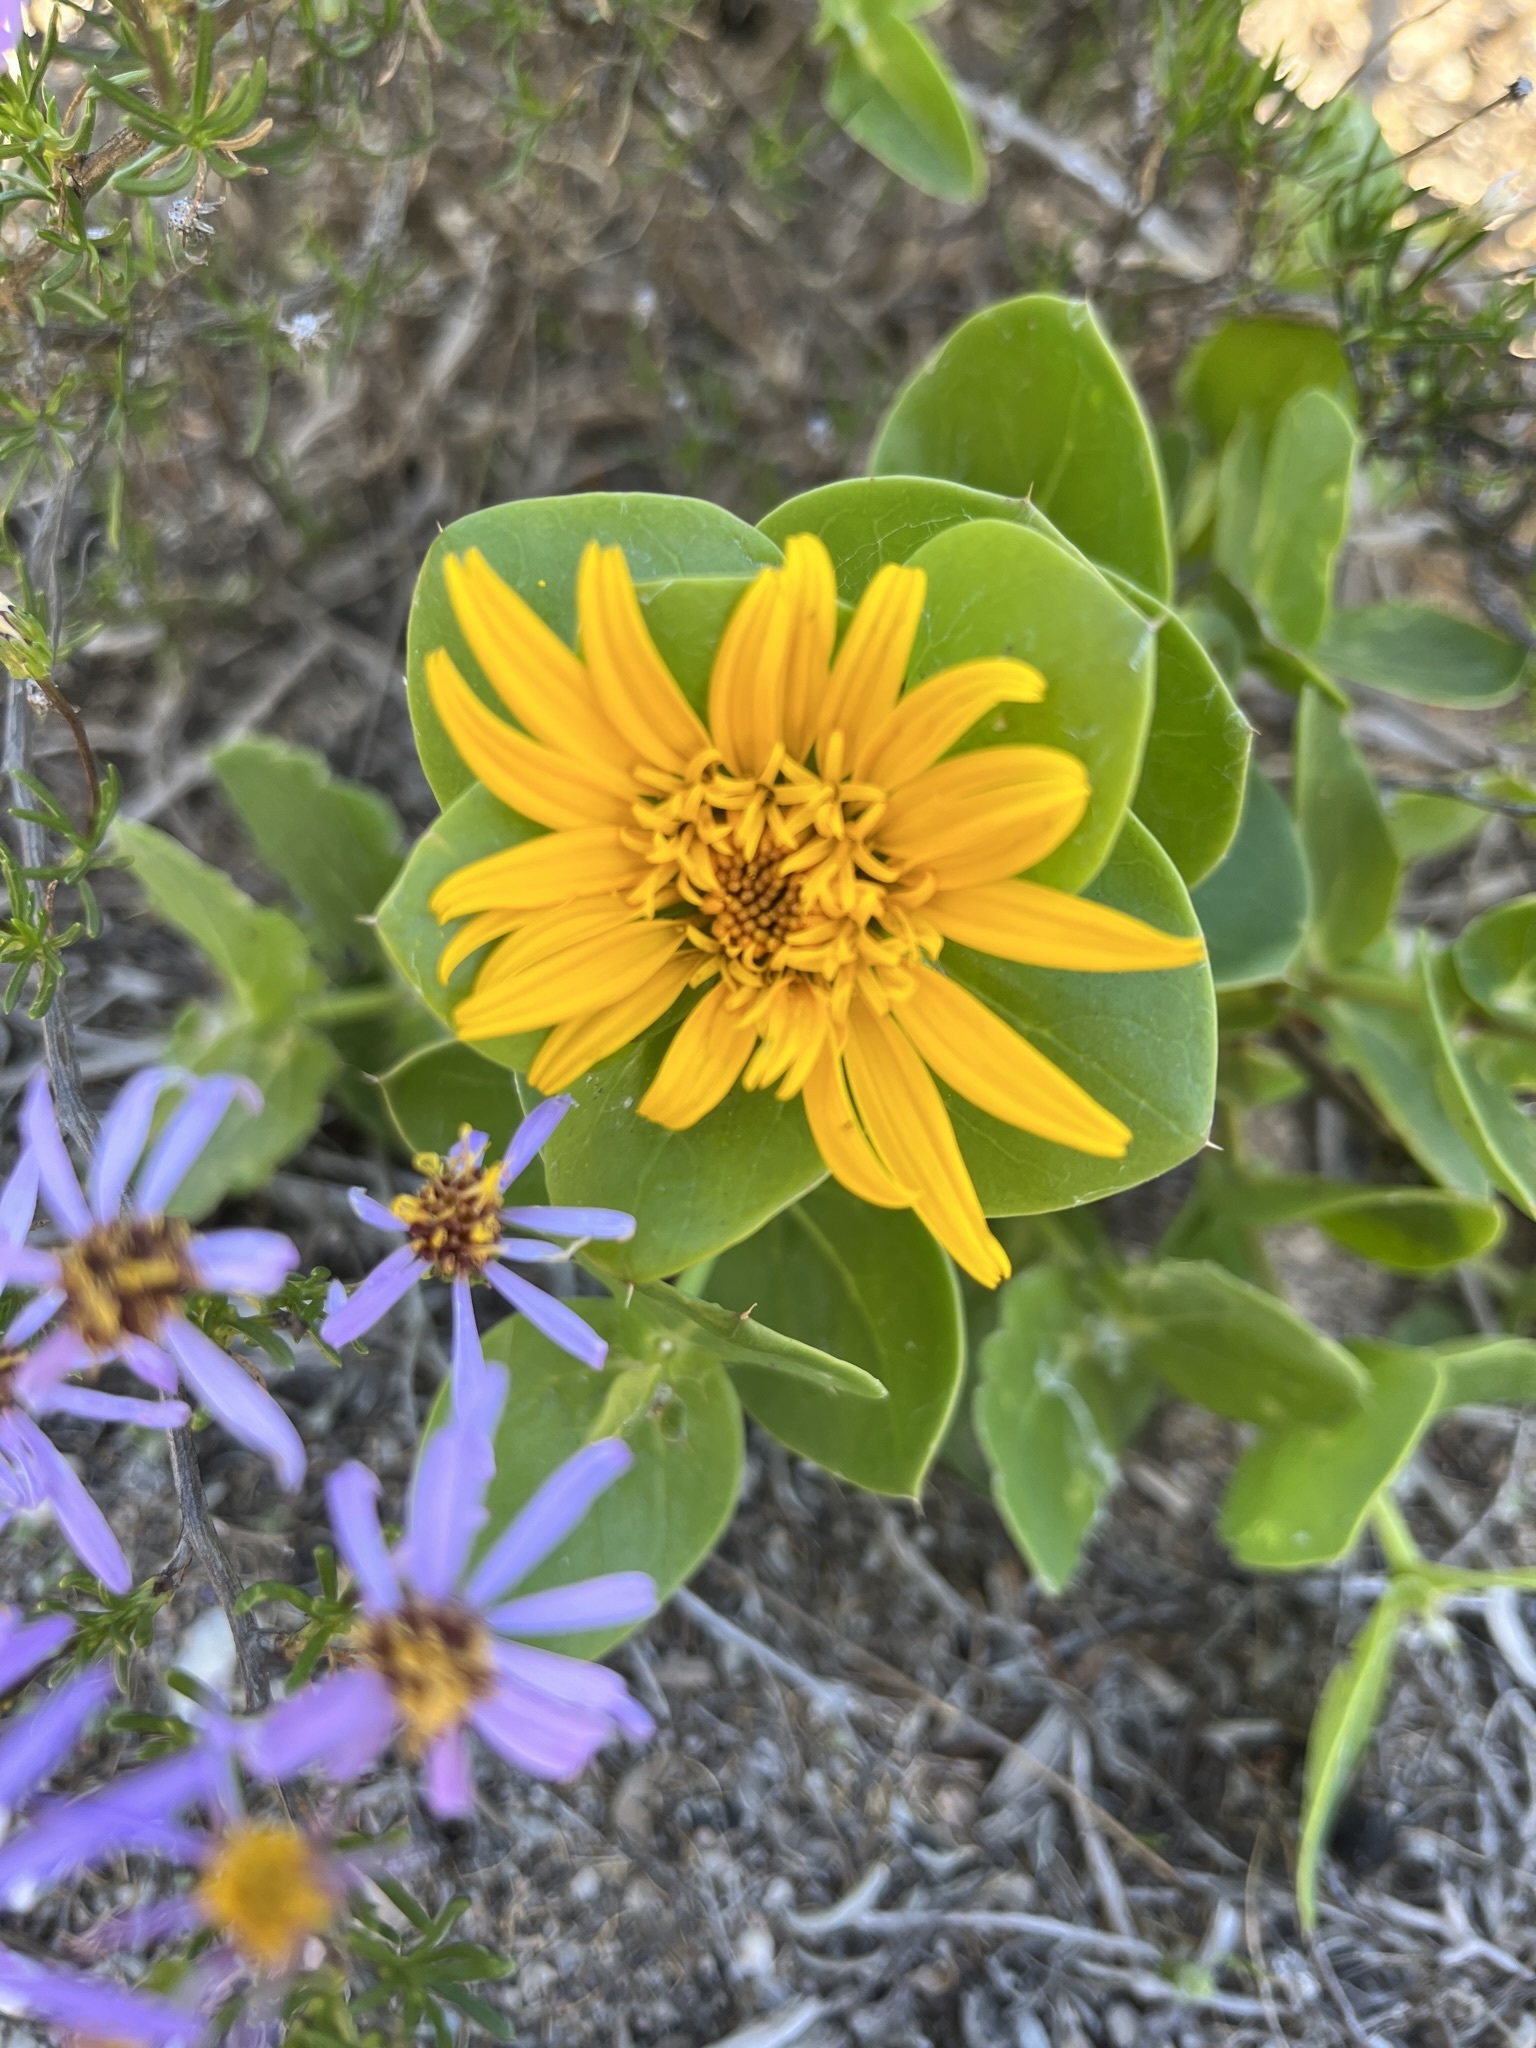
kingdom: Plantae
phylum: Tracheophyta
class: Magnoliopsida
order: Asterales
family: Asteraceae
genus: Didelta
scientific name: Didelta spinosa
